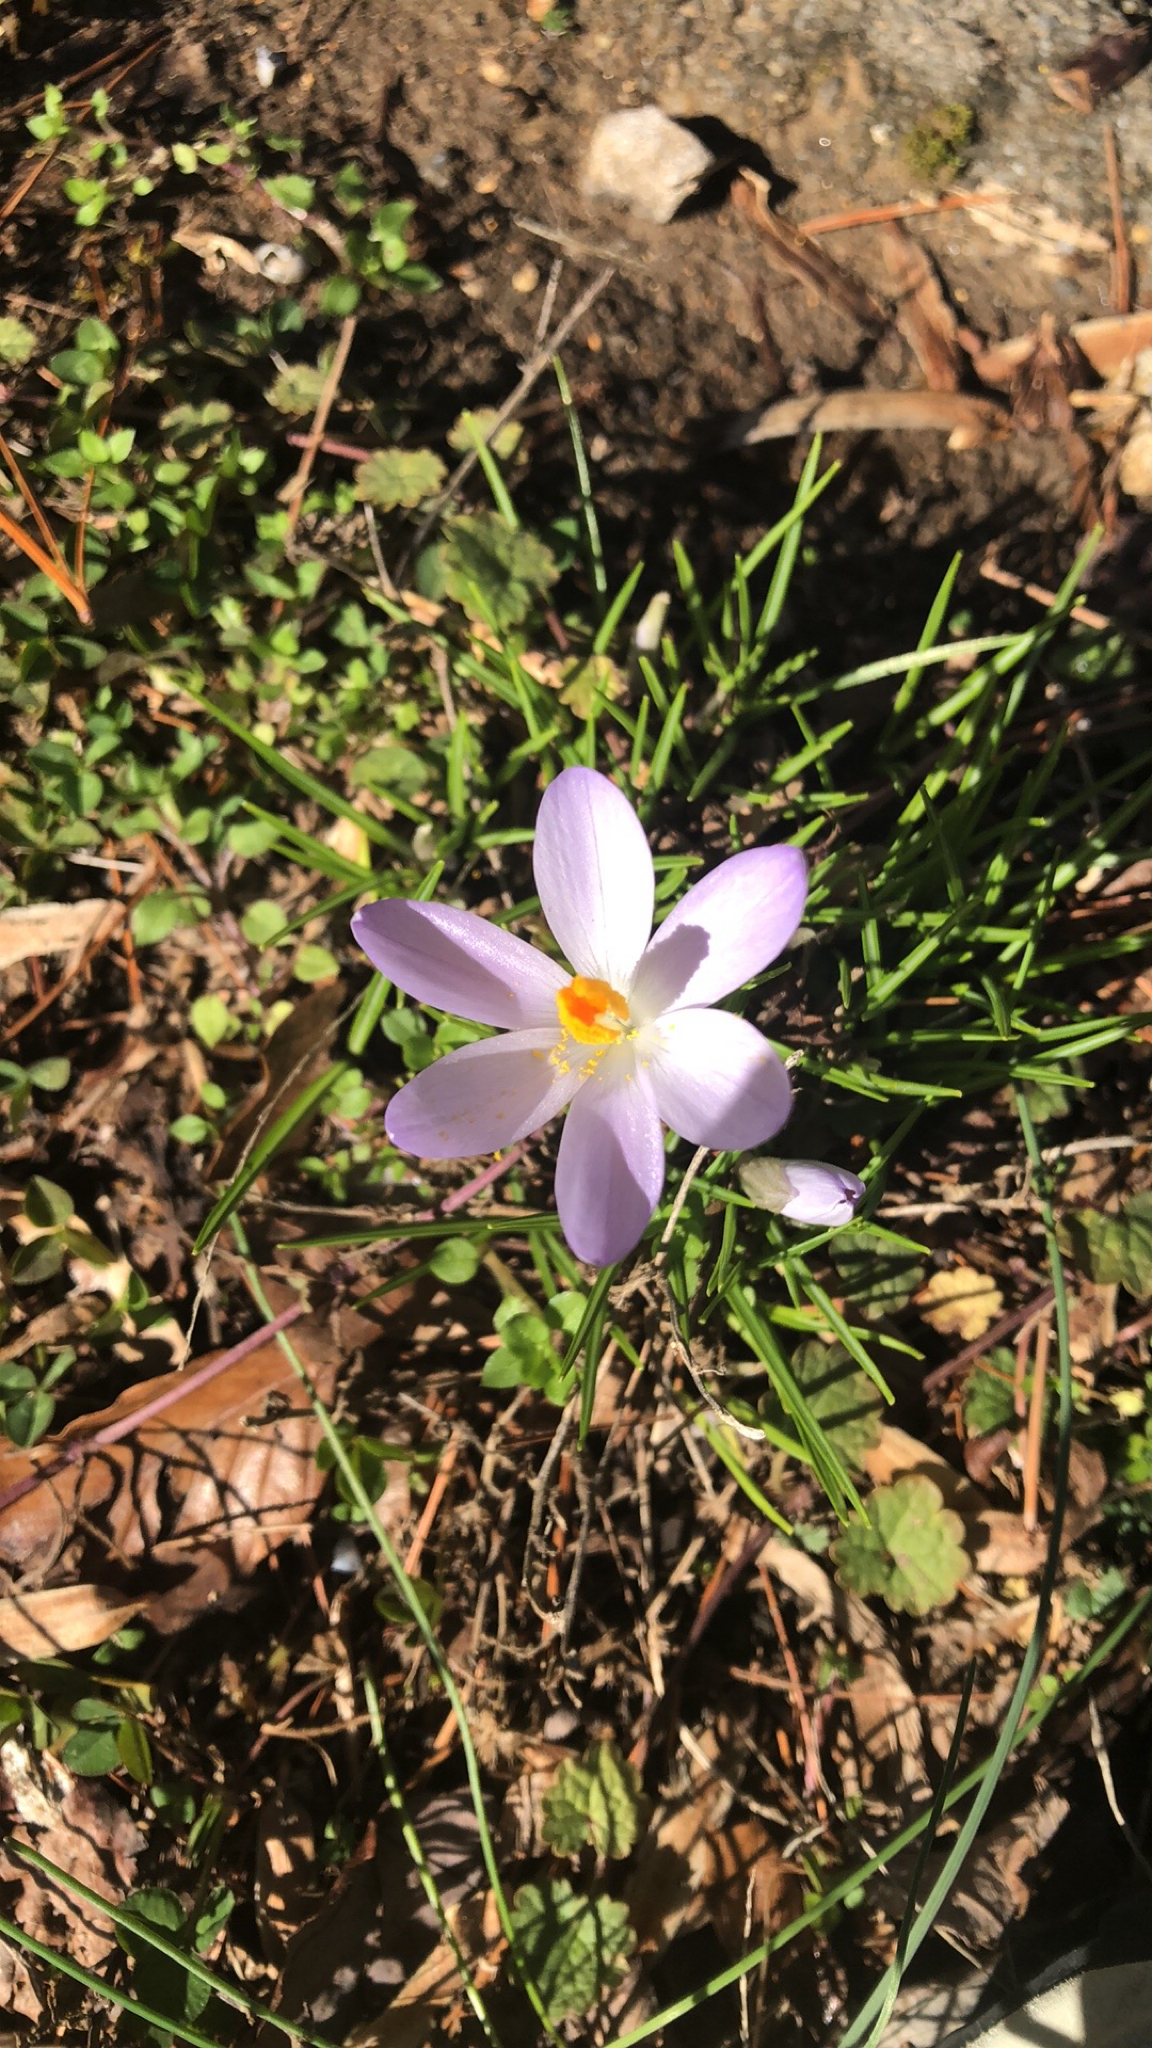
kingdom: Plantae
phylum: Tracheophyta
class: Liliopsida
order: Asparagales
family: Iridaceae
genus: Crocus
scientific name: Crocus tommasinianus
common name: Early crocus
